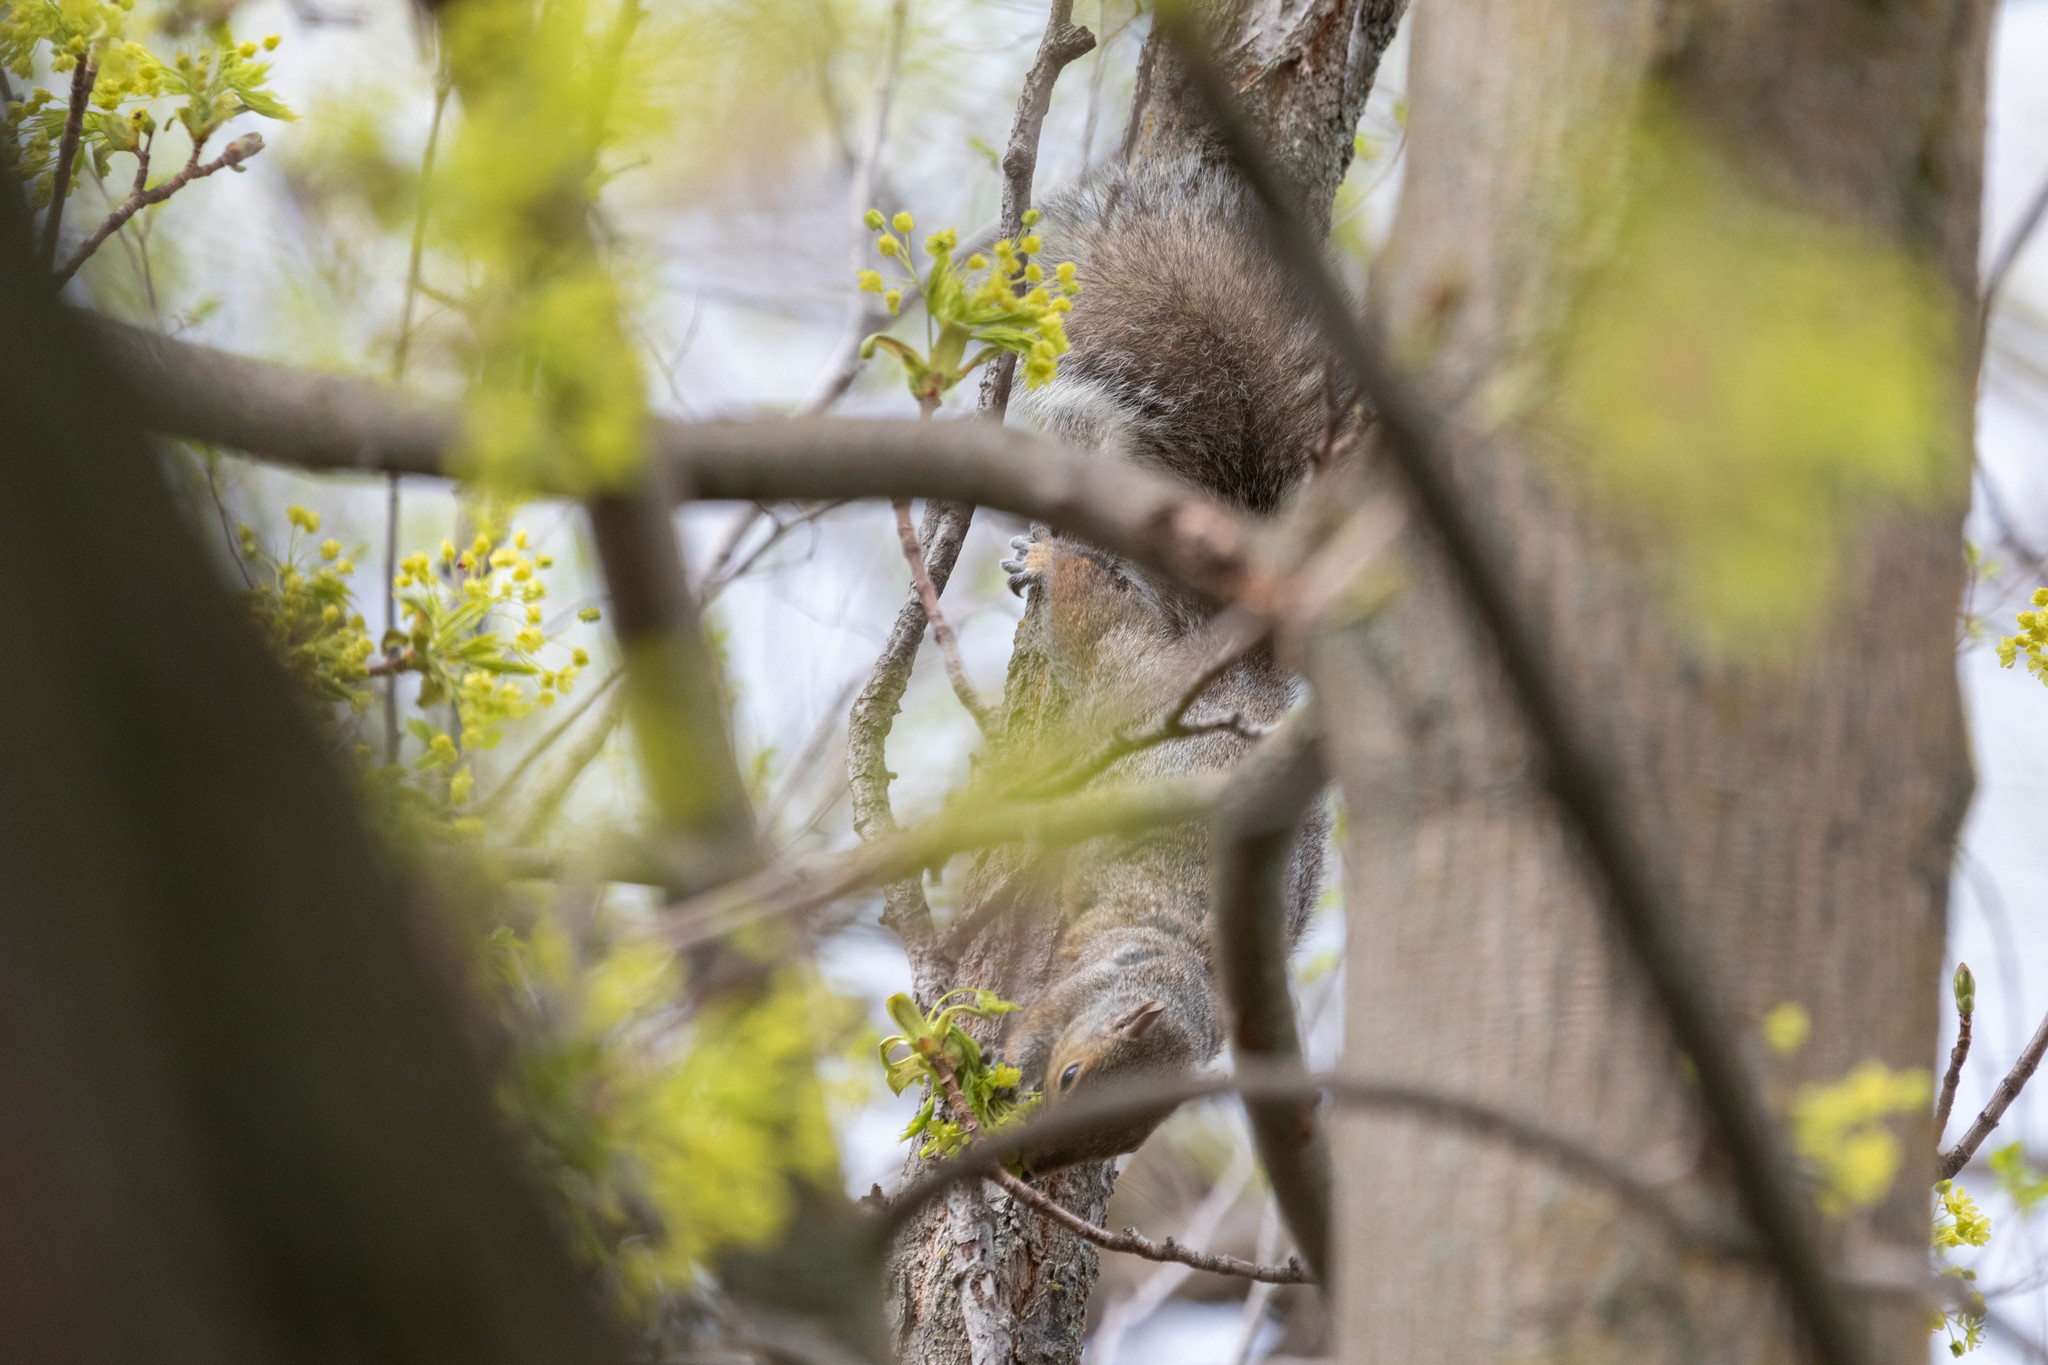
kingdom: Animalia
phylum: Chordata
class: Mammalia
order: Rodentia
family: Sciuridae
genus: Sciurus
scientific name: Sciurus carolinensis
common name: Eastern gray squirrel
